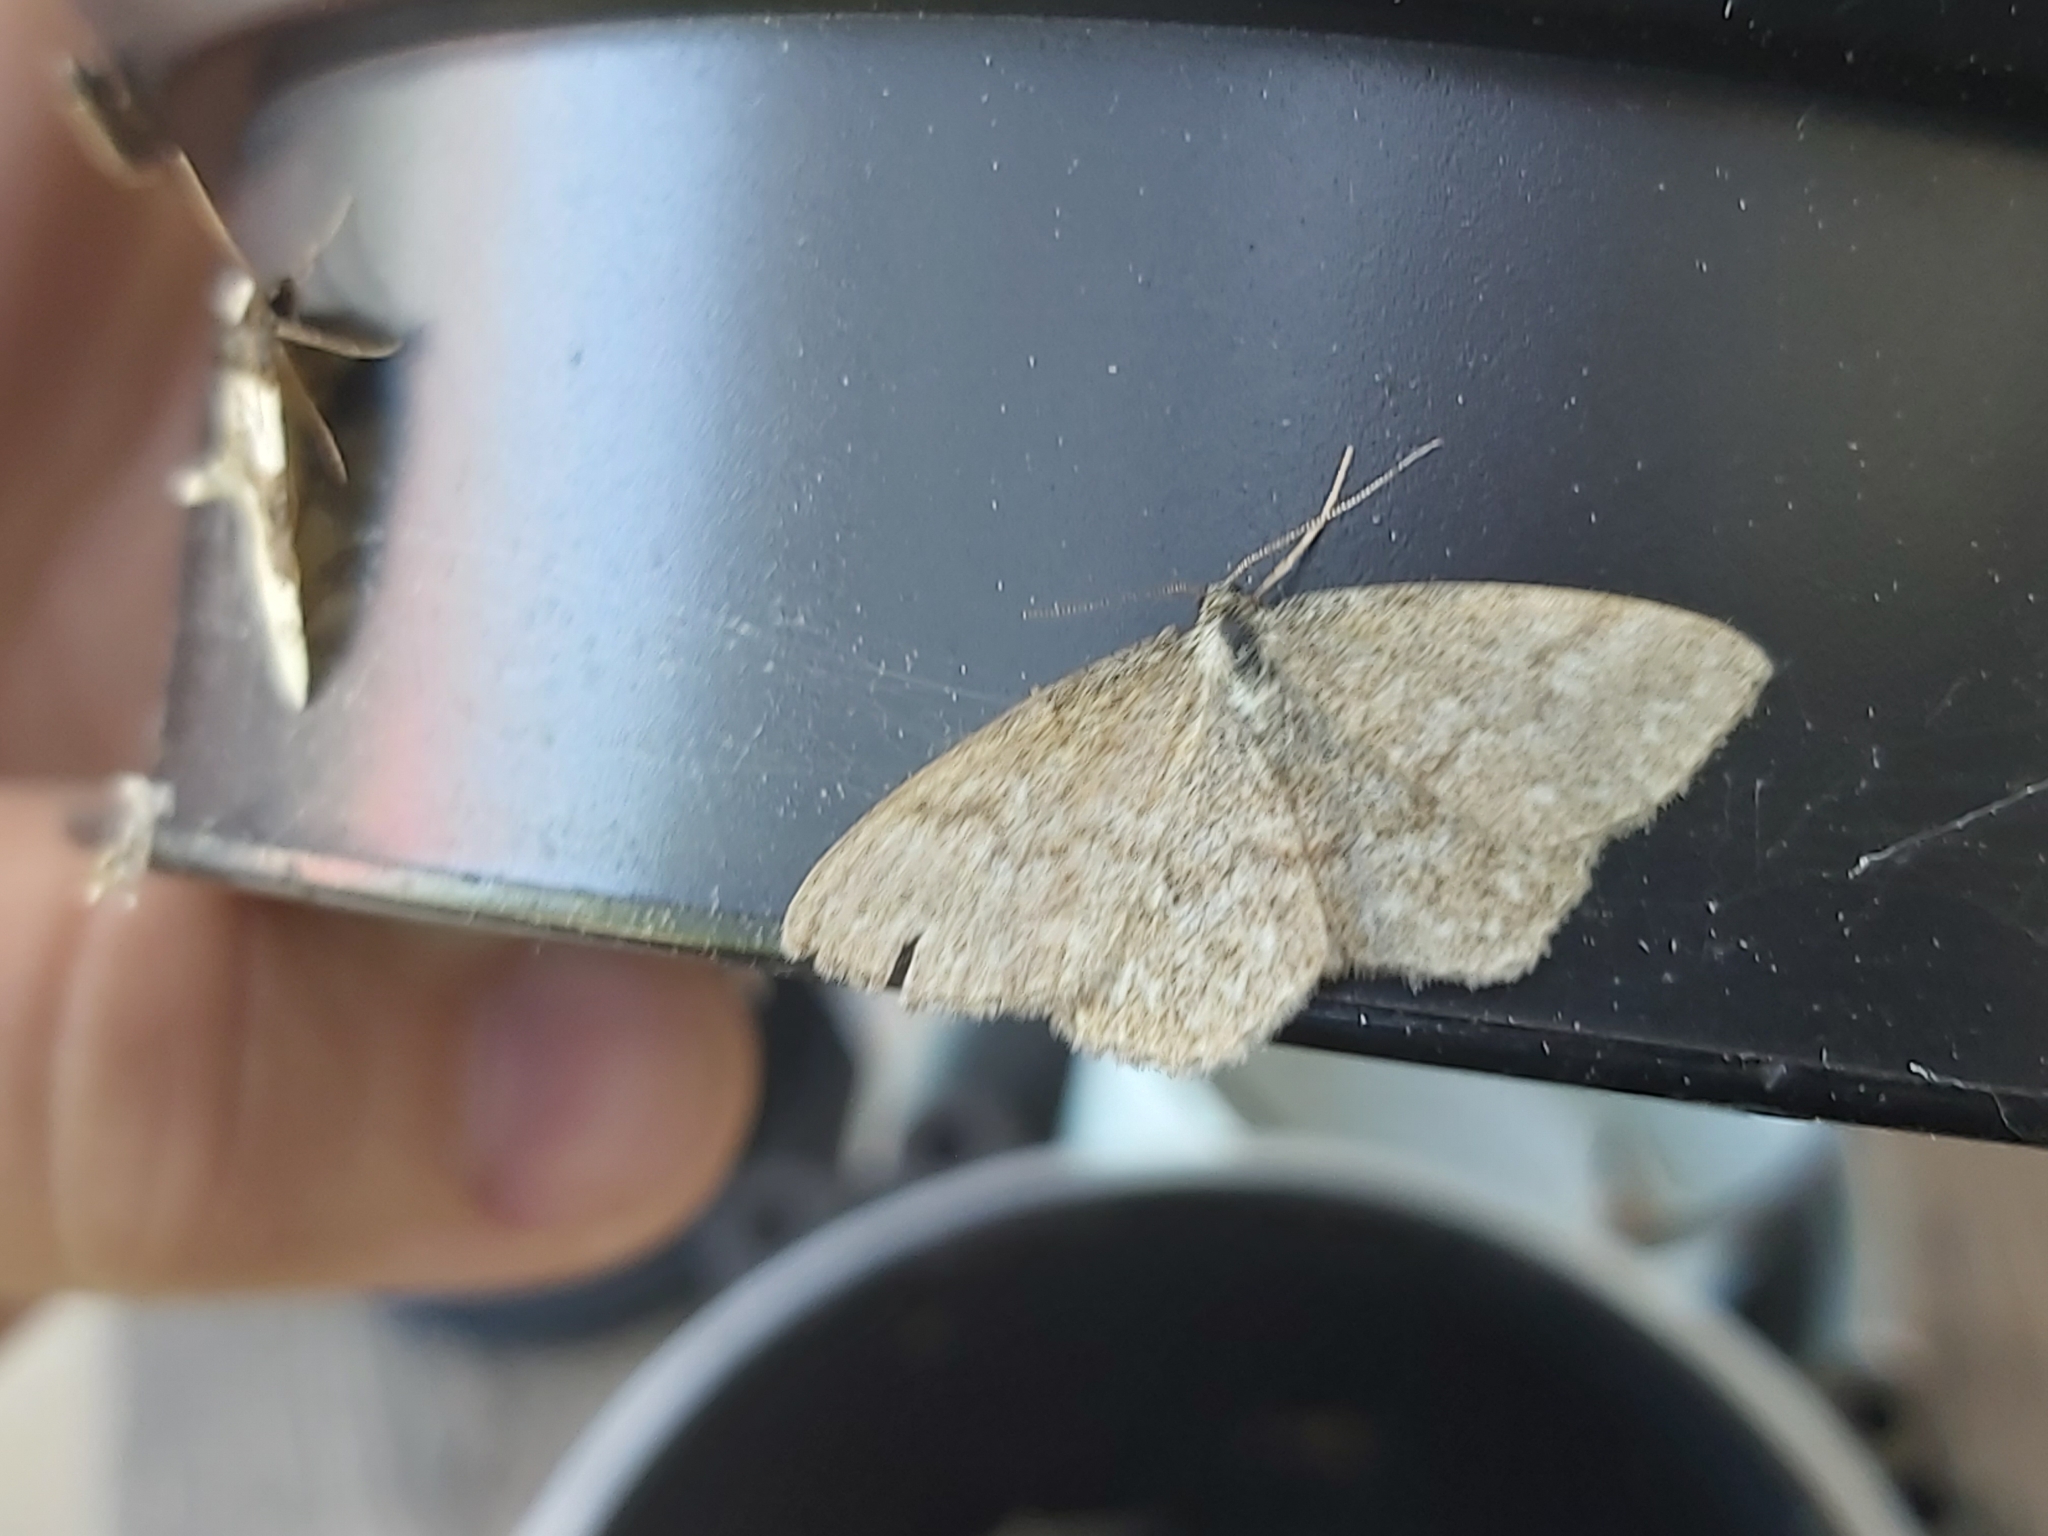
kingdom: Animalia
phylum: Arthropoda
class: Insecta
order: Lepidoptera
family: Geometridae
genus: Scopula
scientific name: Scopula immorata
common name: Lewes wave
